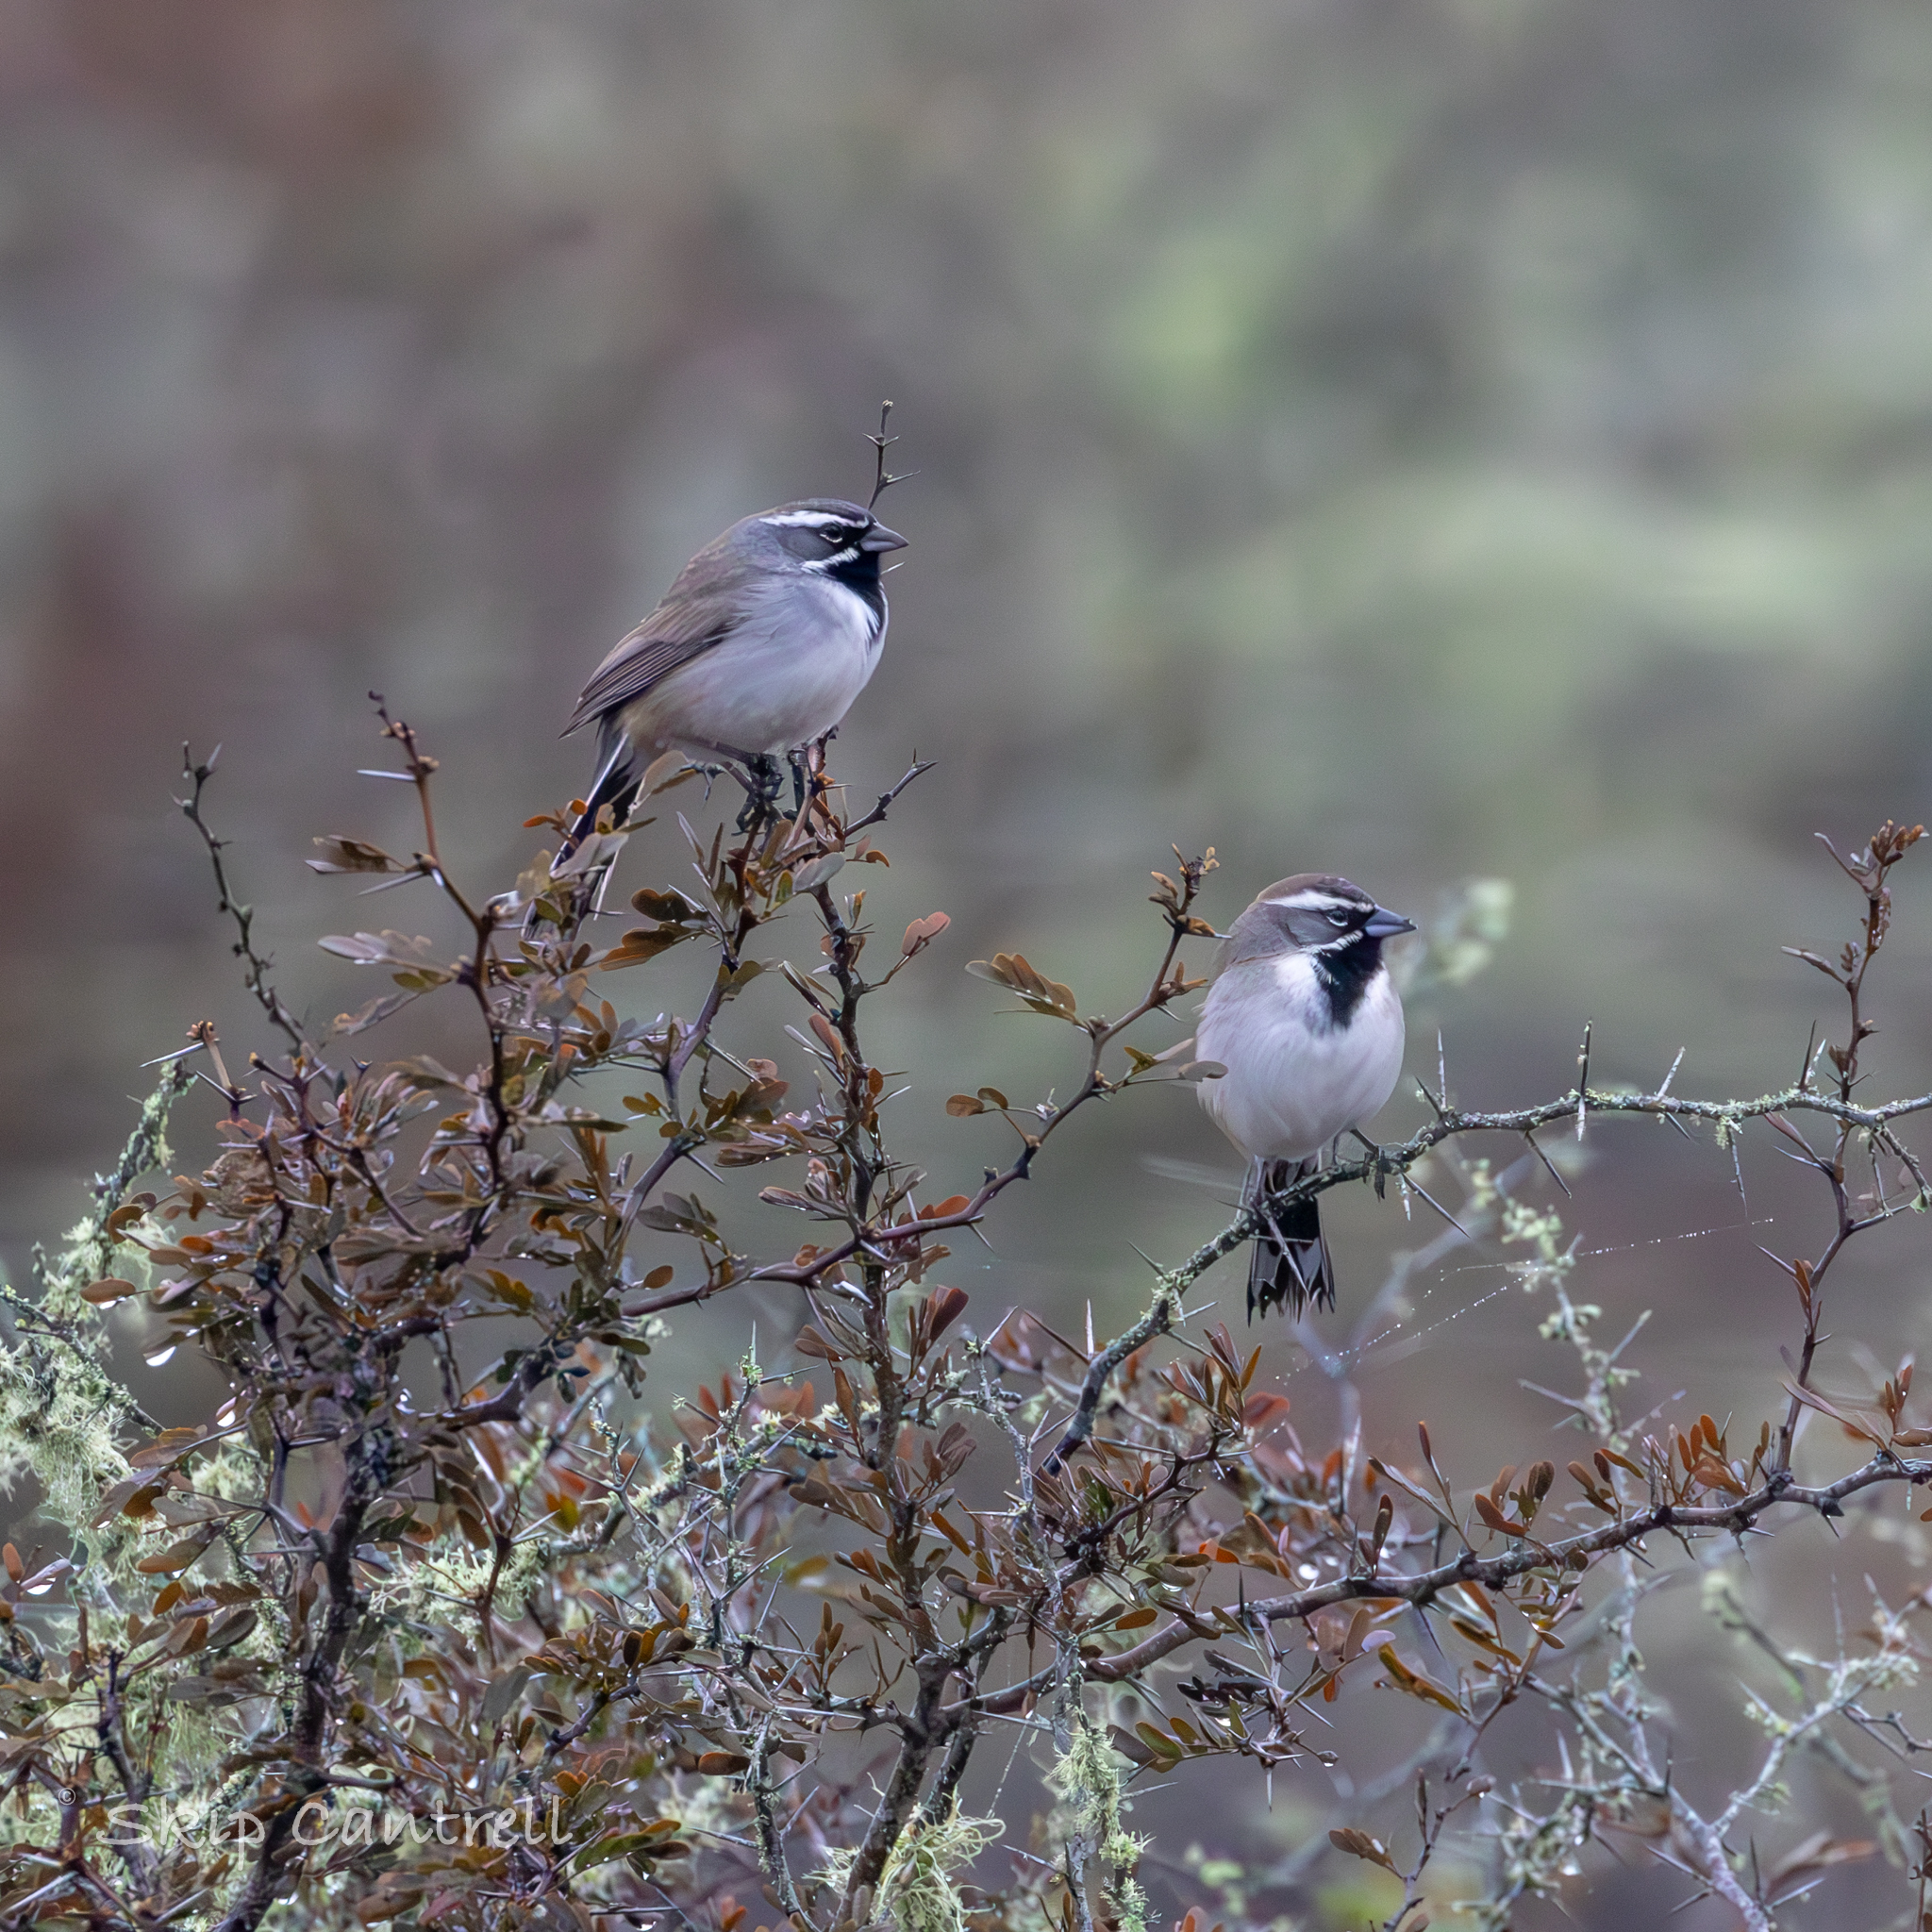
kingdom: Animalia
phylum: Chordata
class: Aves
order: Passeriformes
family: Passerellidae
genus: Amphispiza
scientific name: Amphispiza bilineata
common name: Black-throated sparrow
